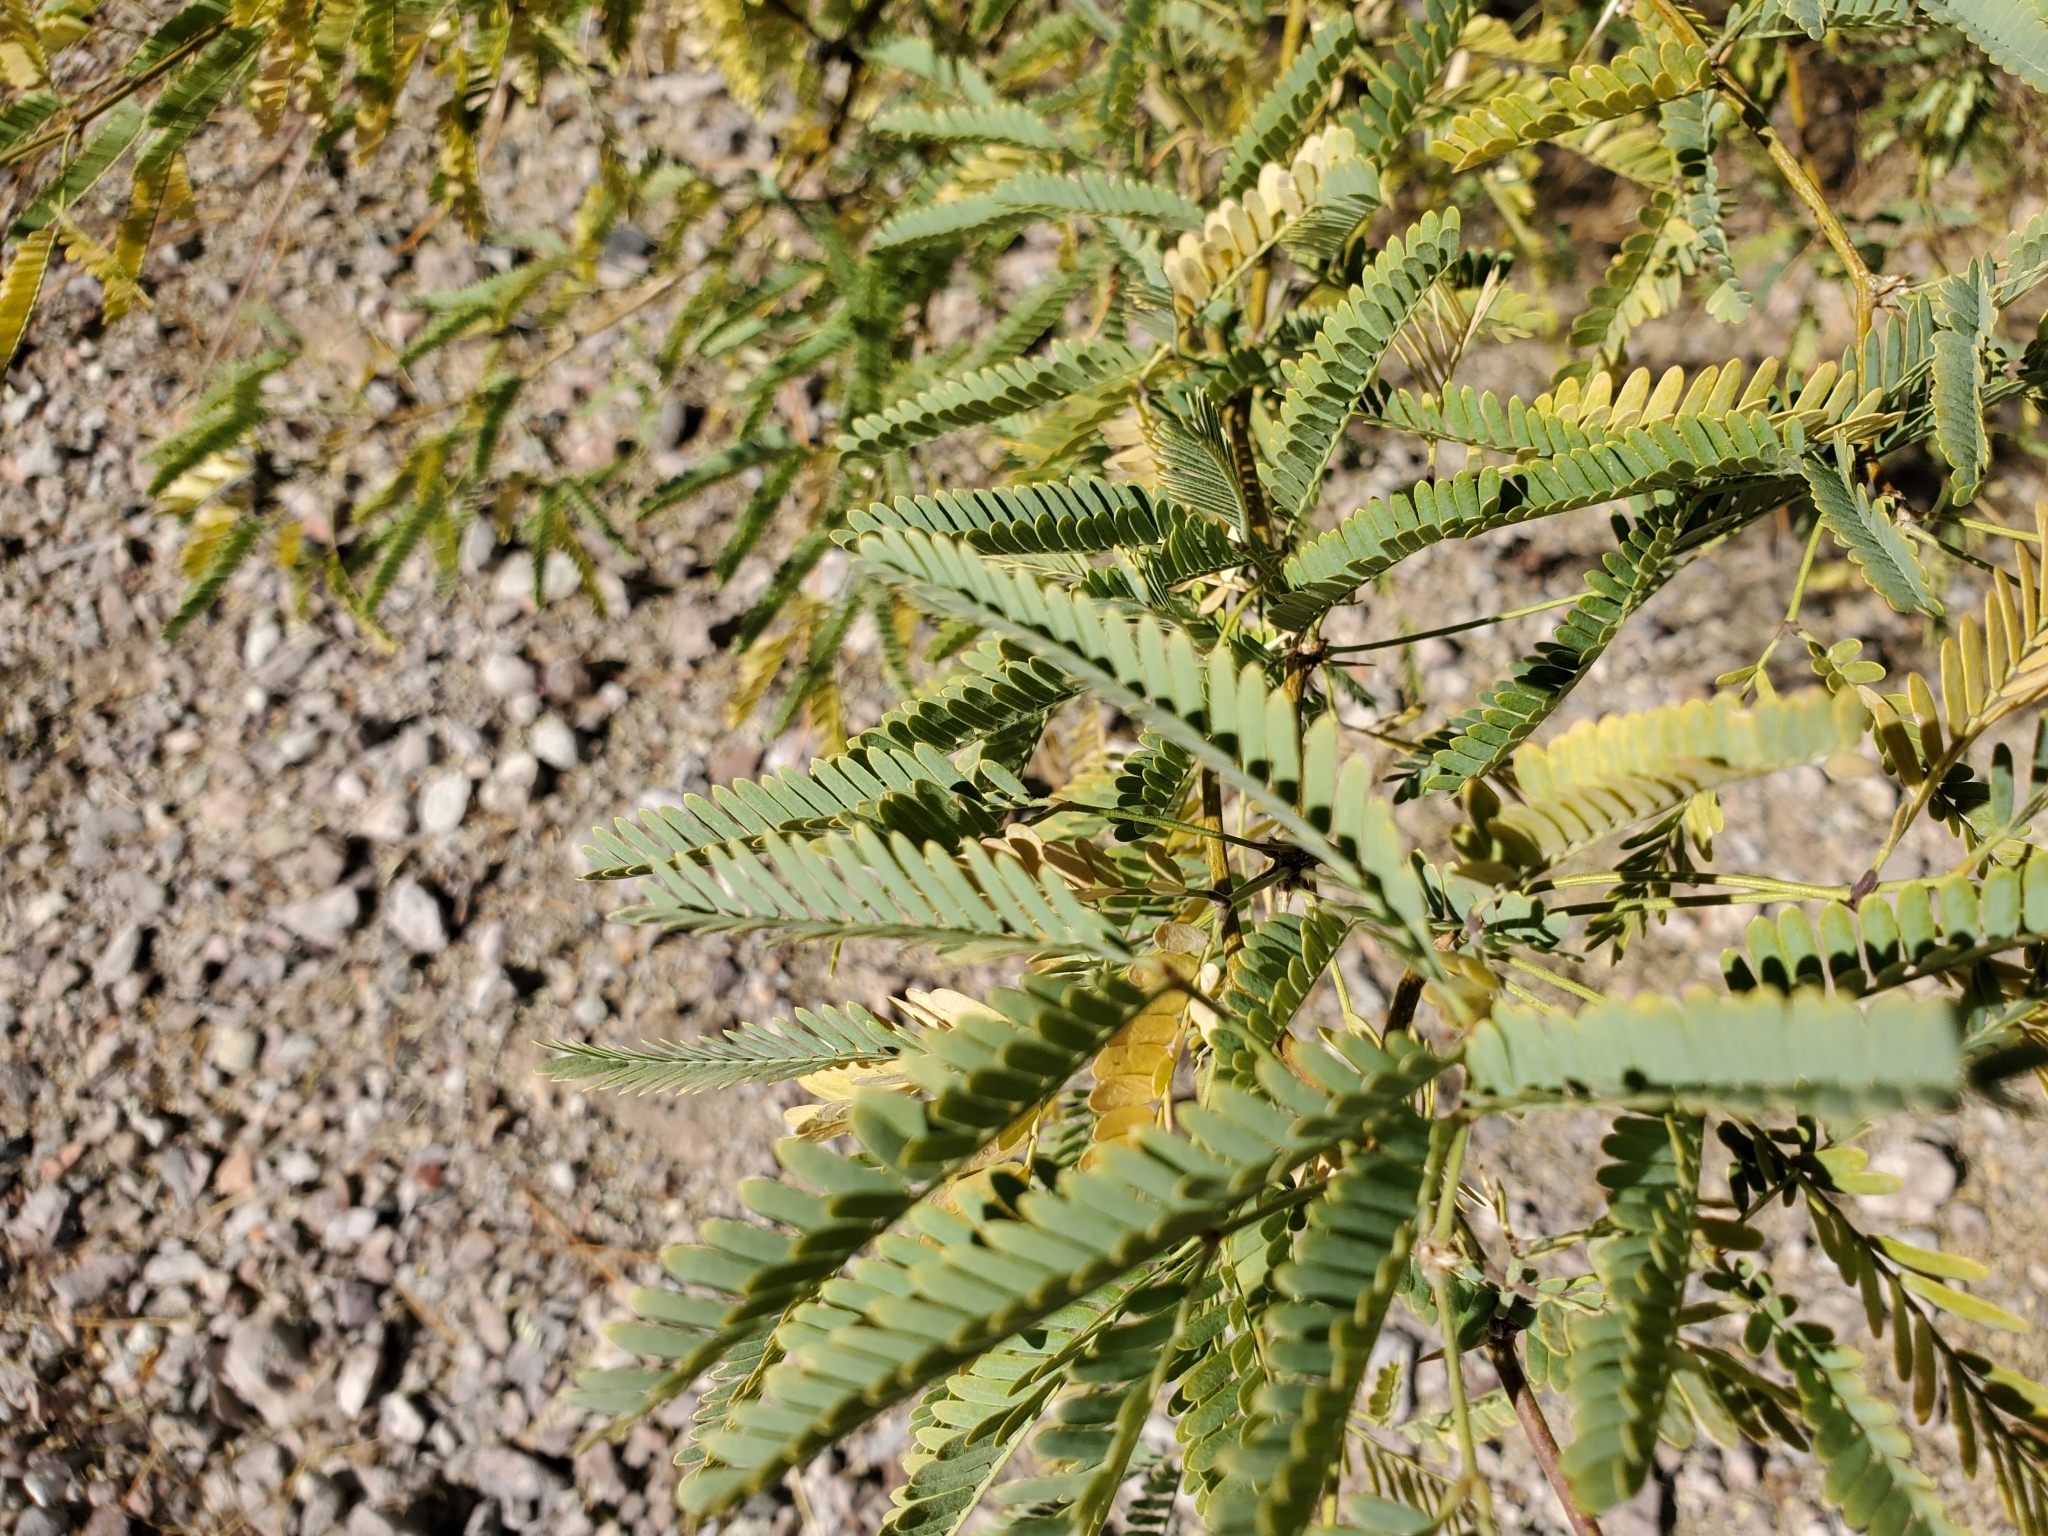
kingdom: Plantae
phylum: Tracheophyta
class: Magnoliopsida
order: Fabales
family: Fabaceae
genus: Prosopis
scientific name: Prosopis velutina
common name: Velvet mesquite
